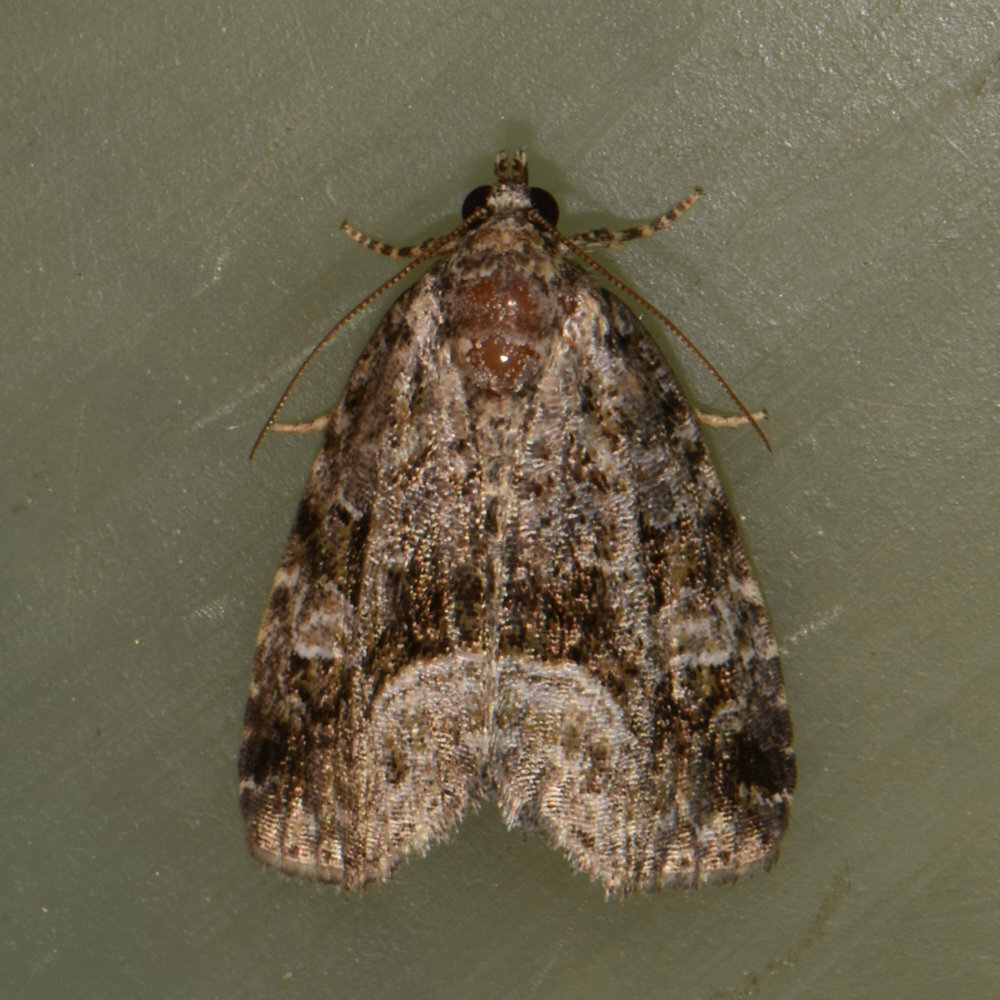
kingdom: Animalia
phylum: Arthropoda
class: Insecta
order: Lepidoptera
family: Noctuidae
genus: Protodeltote
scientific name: Protodeltote muscosula
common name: Large mossy glyph
